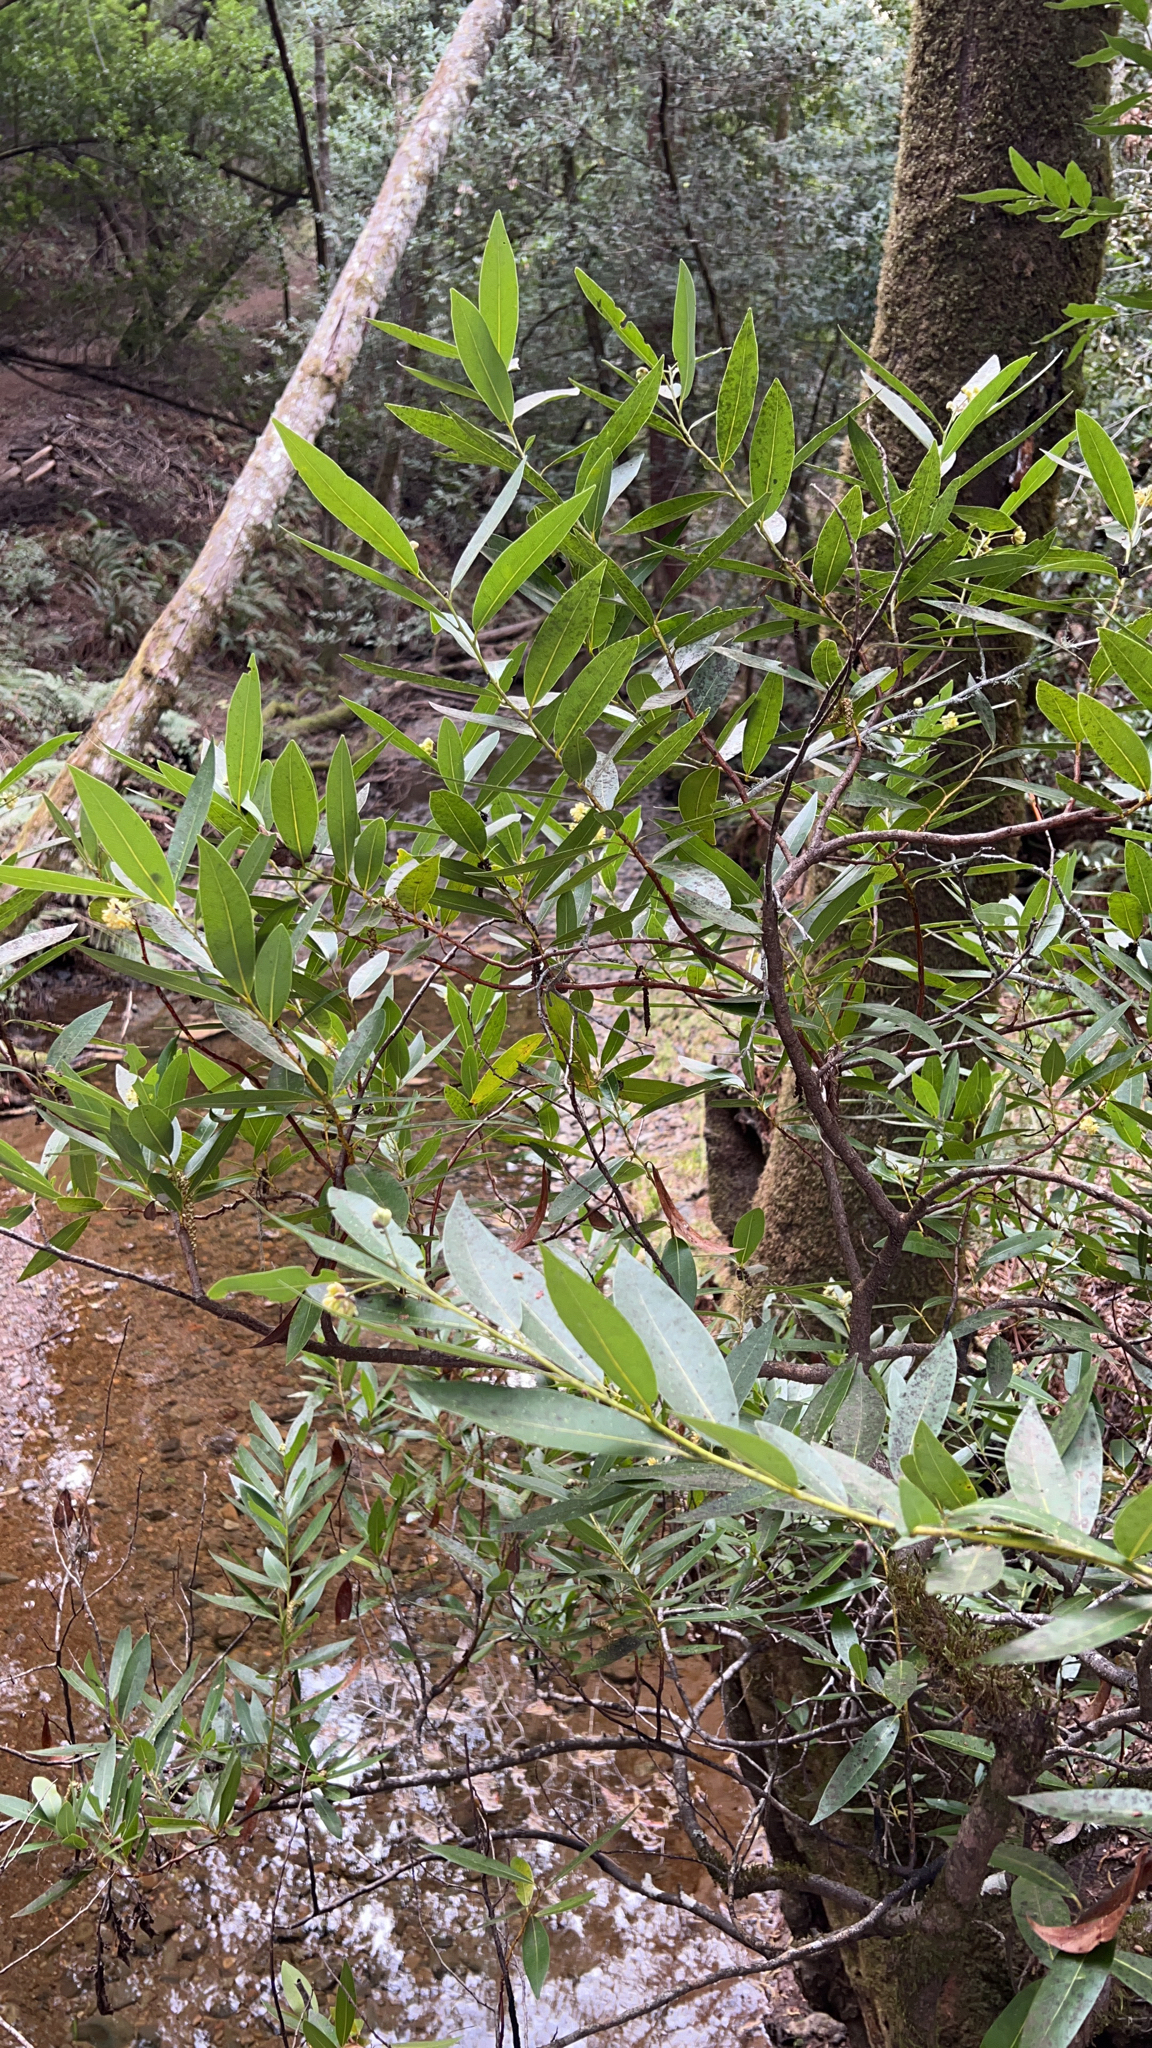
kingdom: Plantae
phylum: Tracheophyta
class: Magnoliopsida
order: Laurales
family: Lauraceae
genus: Umbellularia
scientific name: Umbellularia californica
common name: California bay
